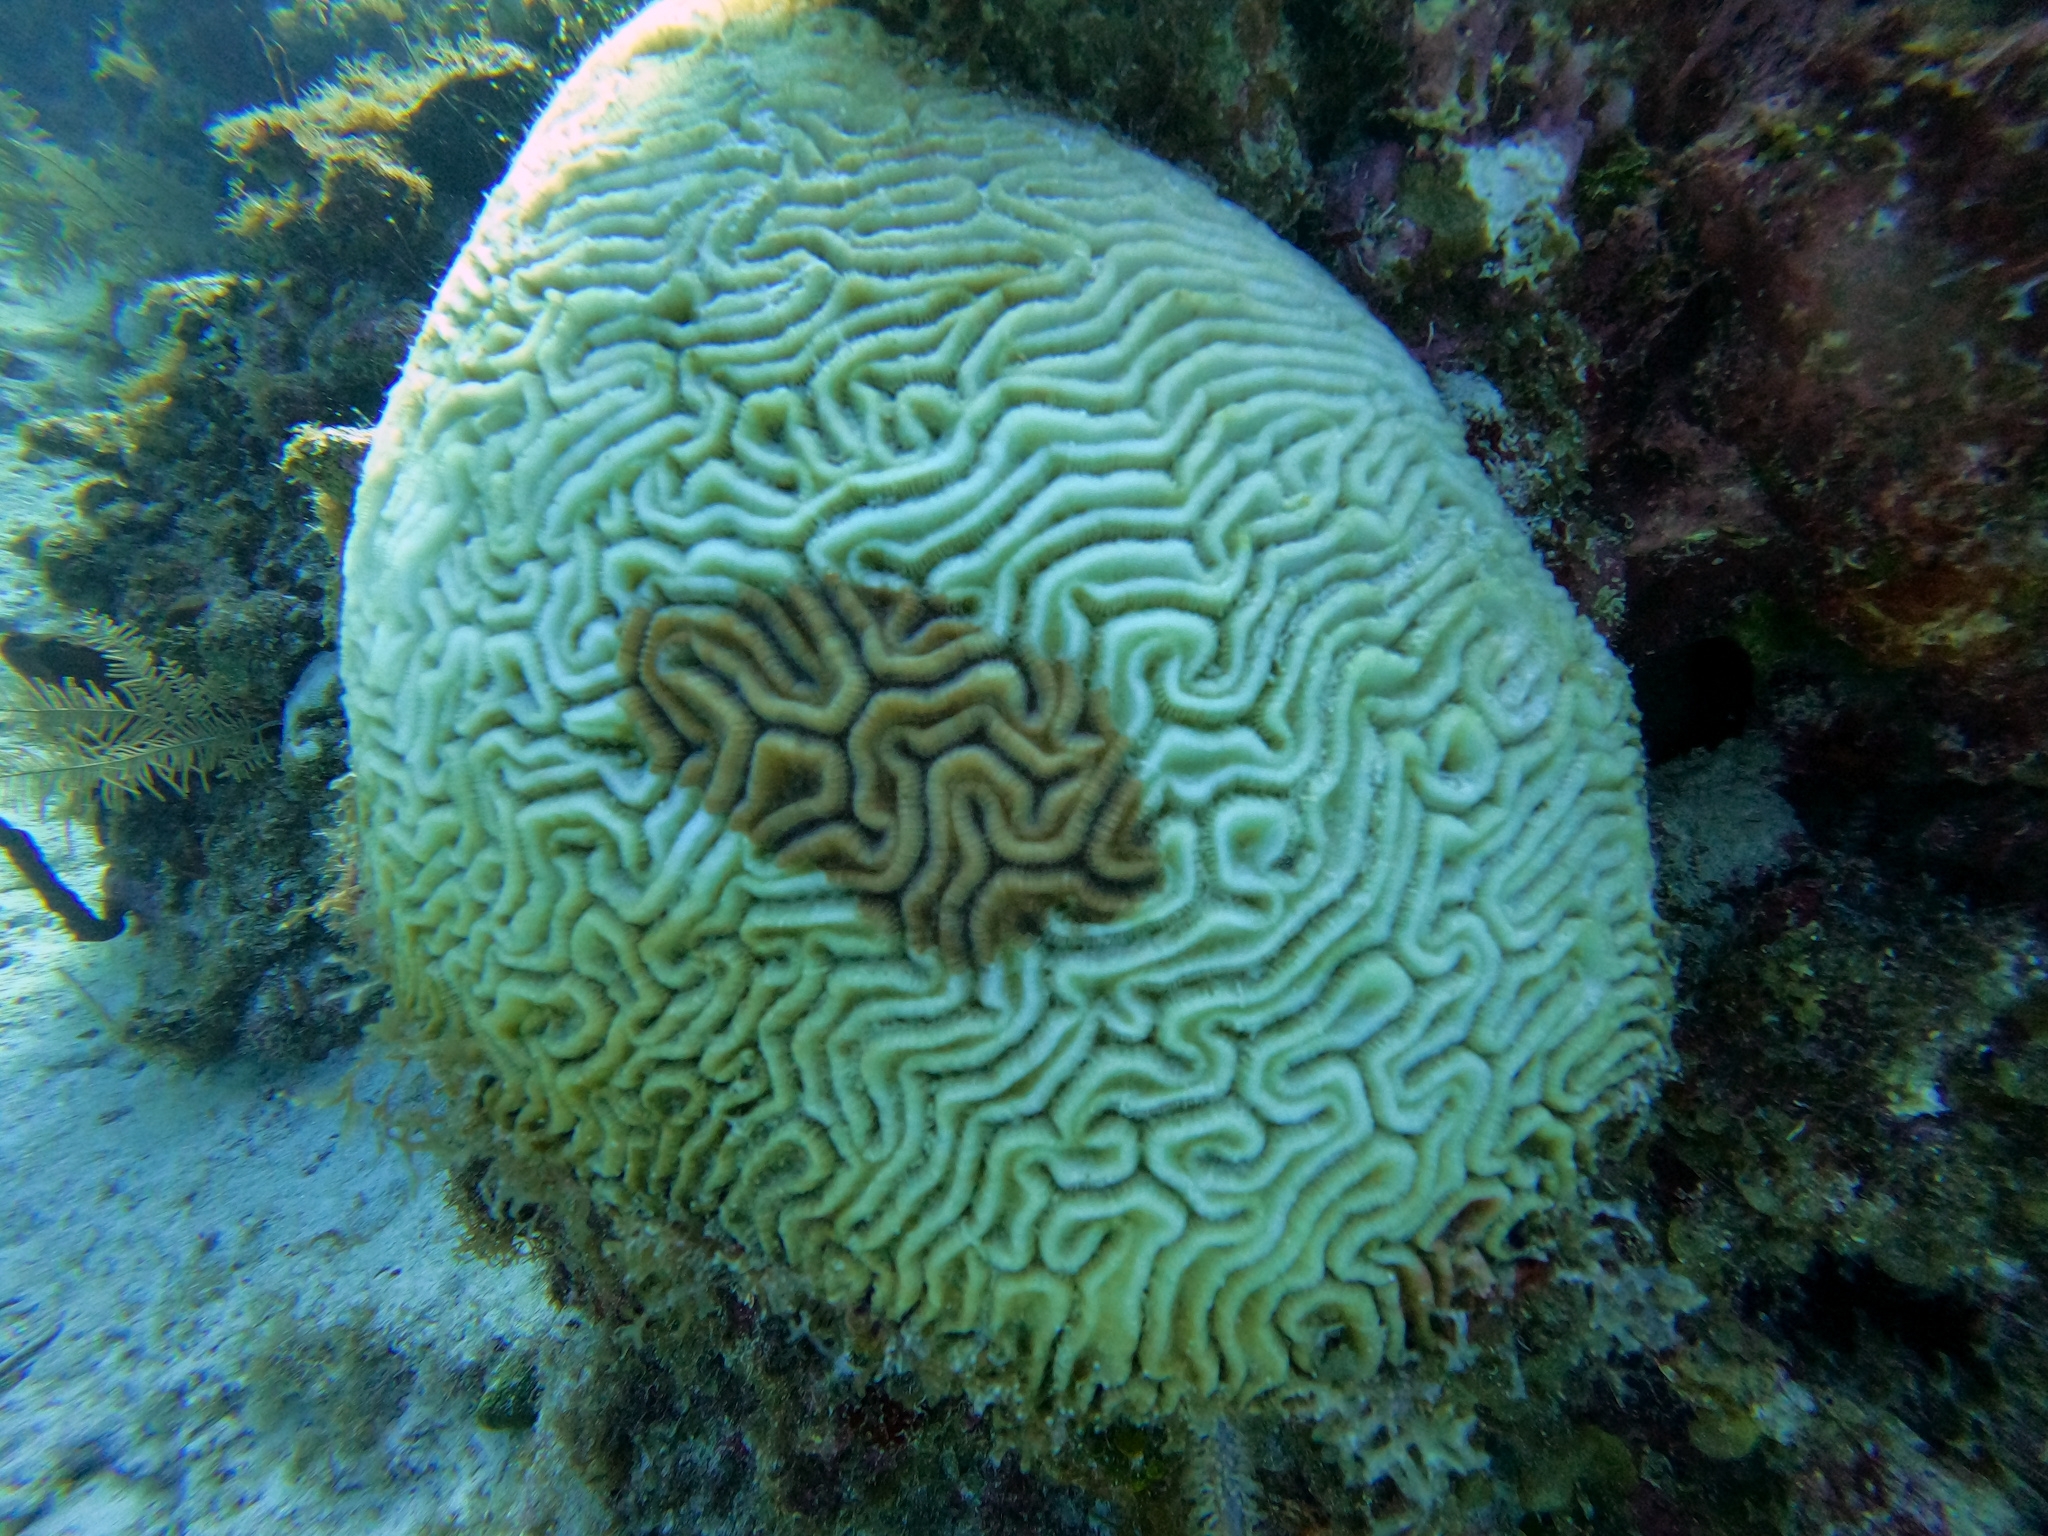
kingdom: Animalia
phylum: Cnidaria
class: Anthozoa
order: Scleractinia
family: Faviidae
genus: Diploria
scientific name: Diploria labyrinthiformis
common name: Grooved brain coral
